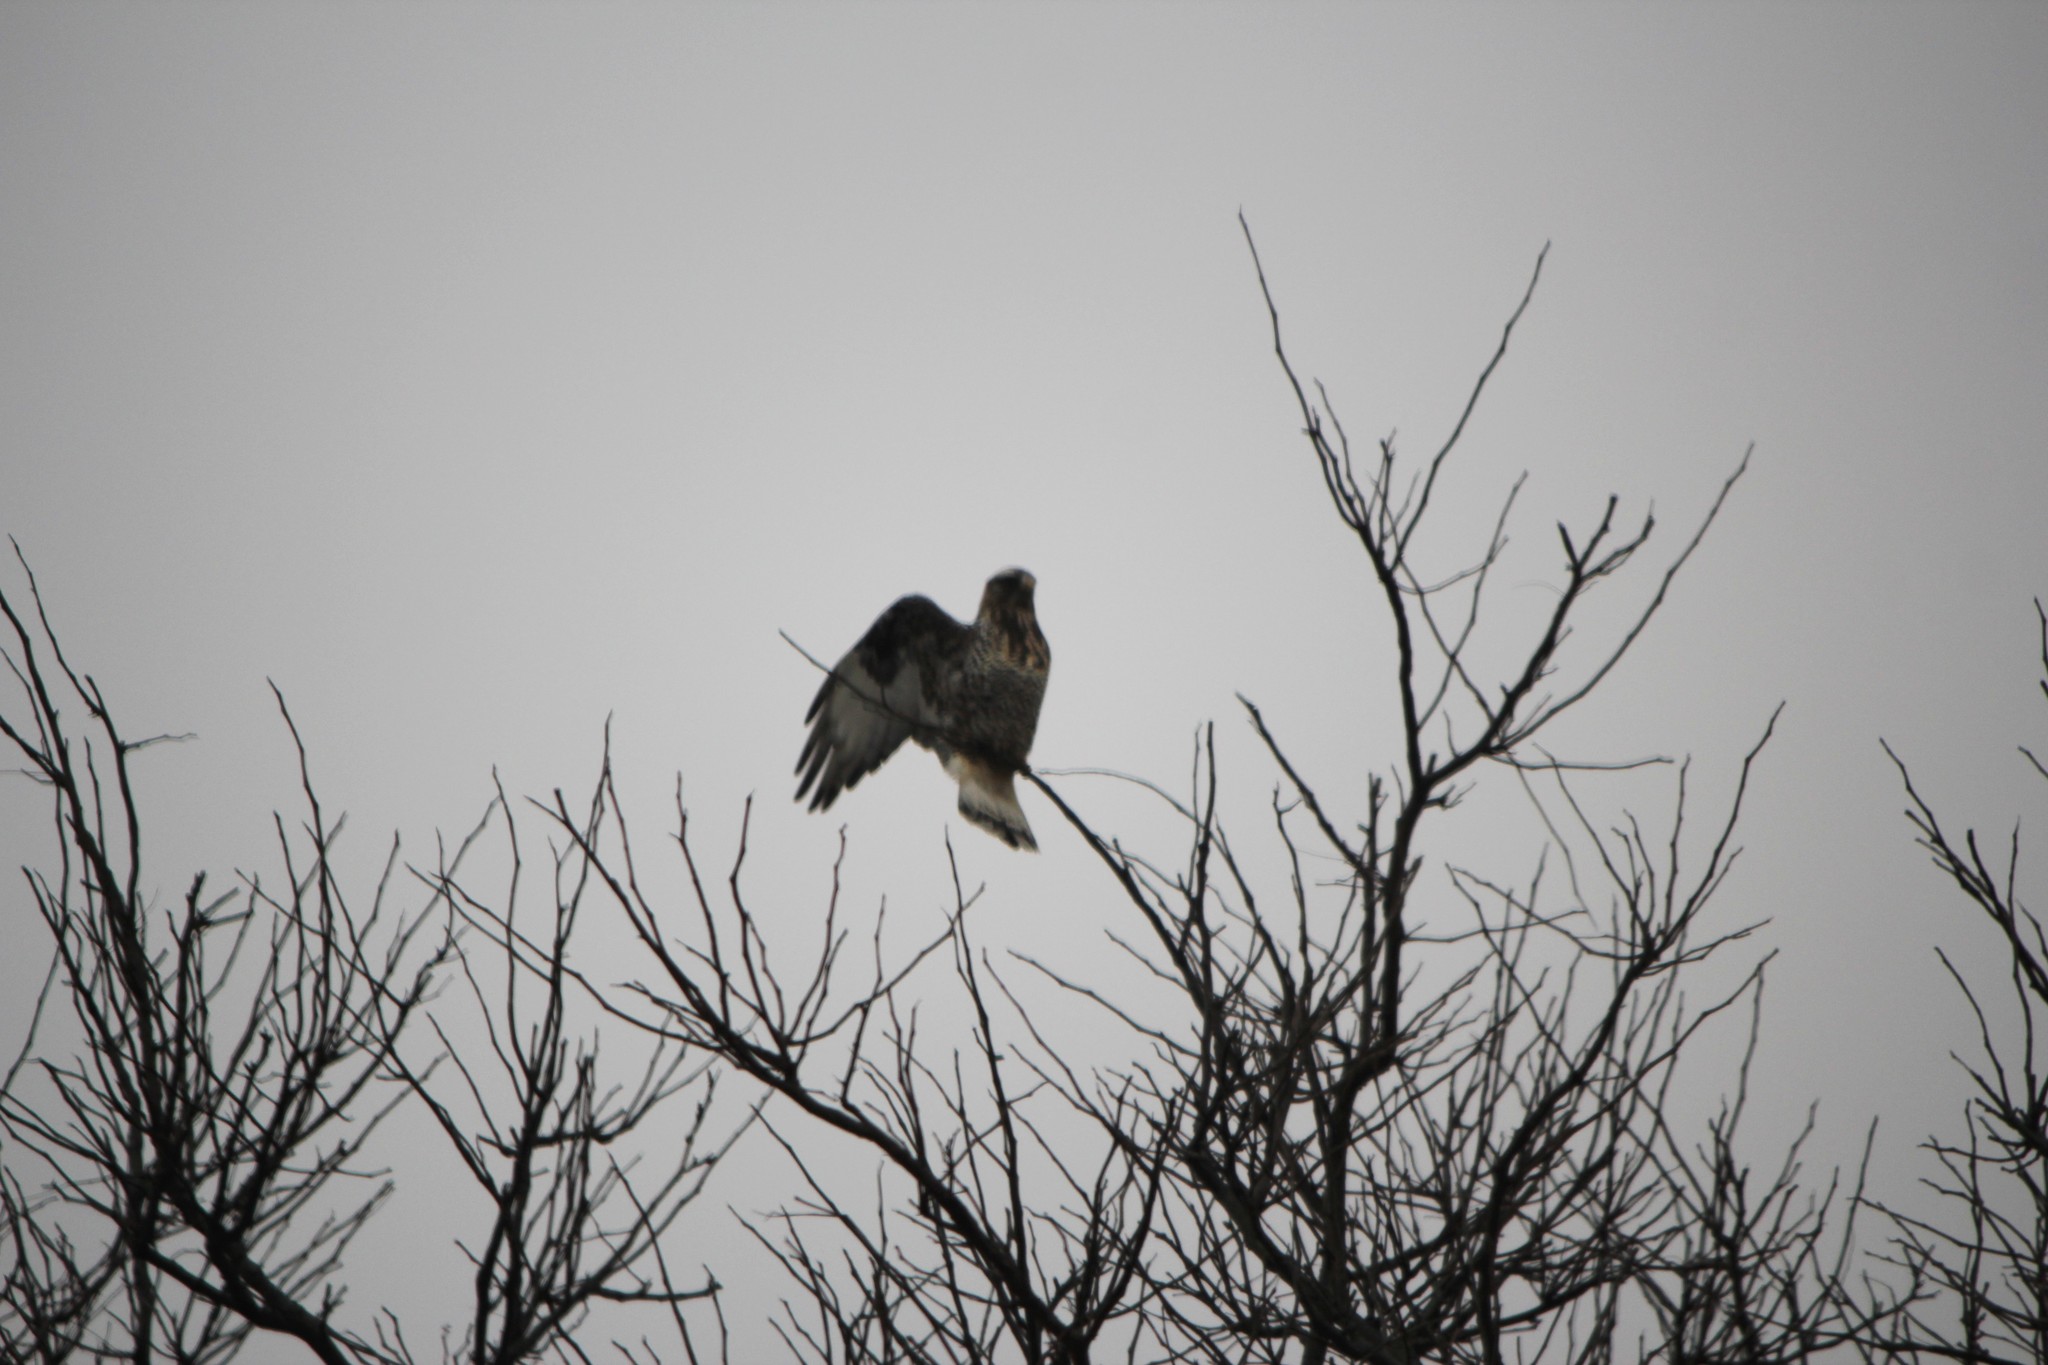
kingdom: Animalia
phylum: Chordata
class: Aves
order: Accipitriformes
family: Accipitridae
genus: Buteo
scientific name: Buteo lagopus
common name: Rough-legged buzzard
